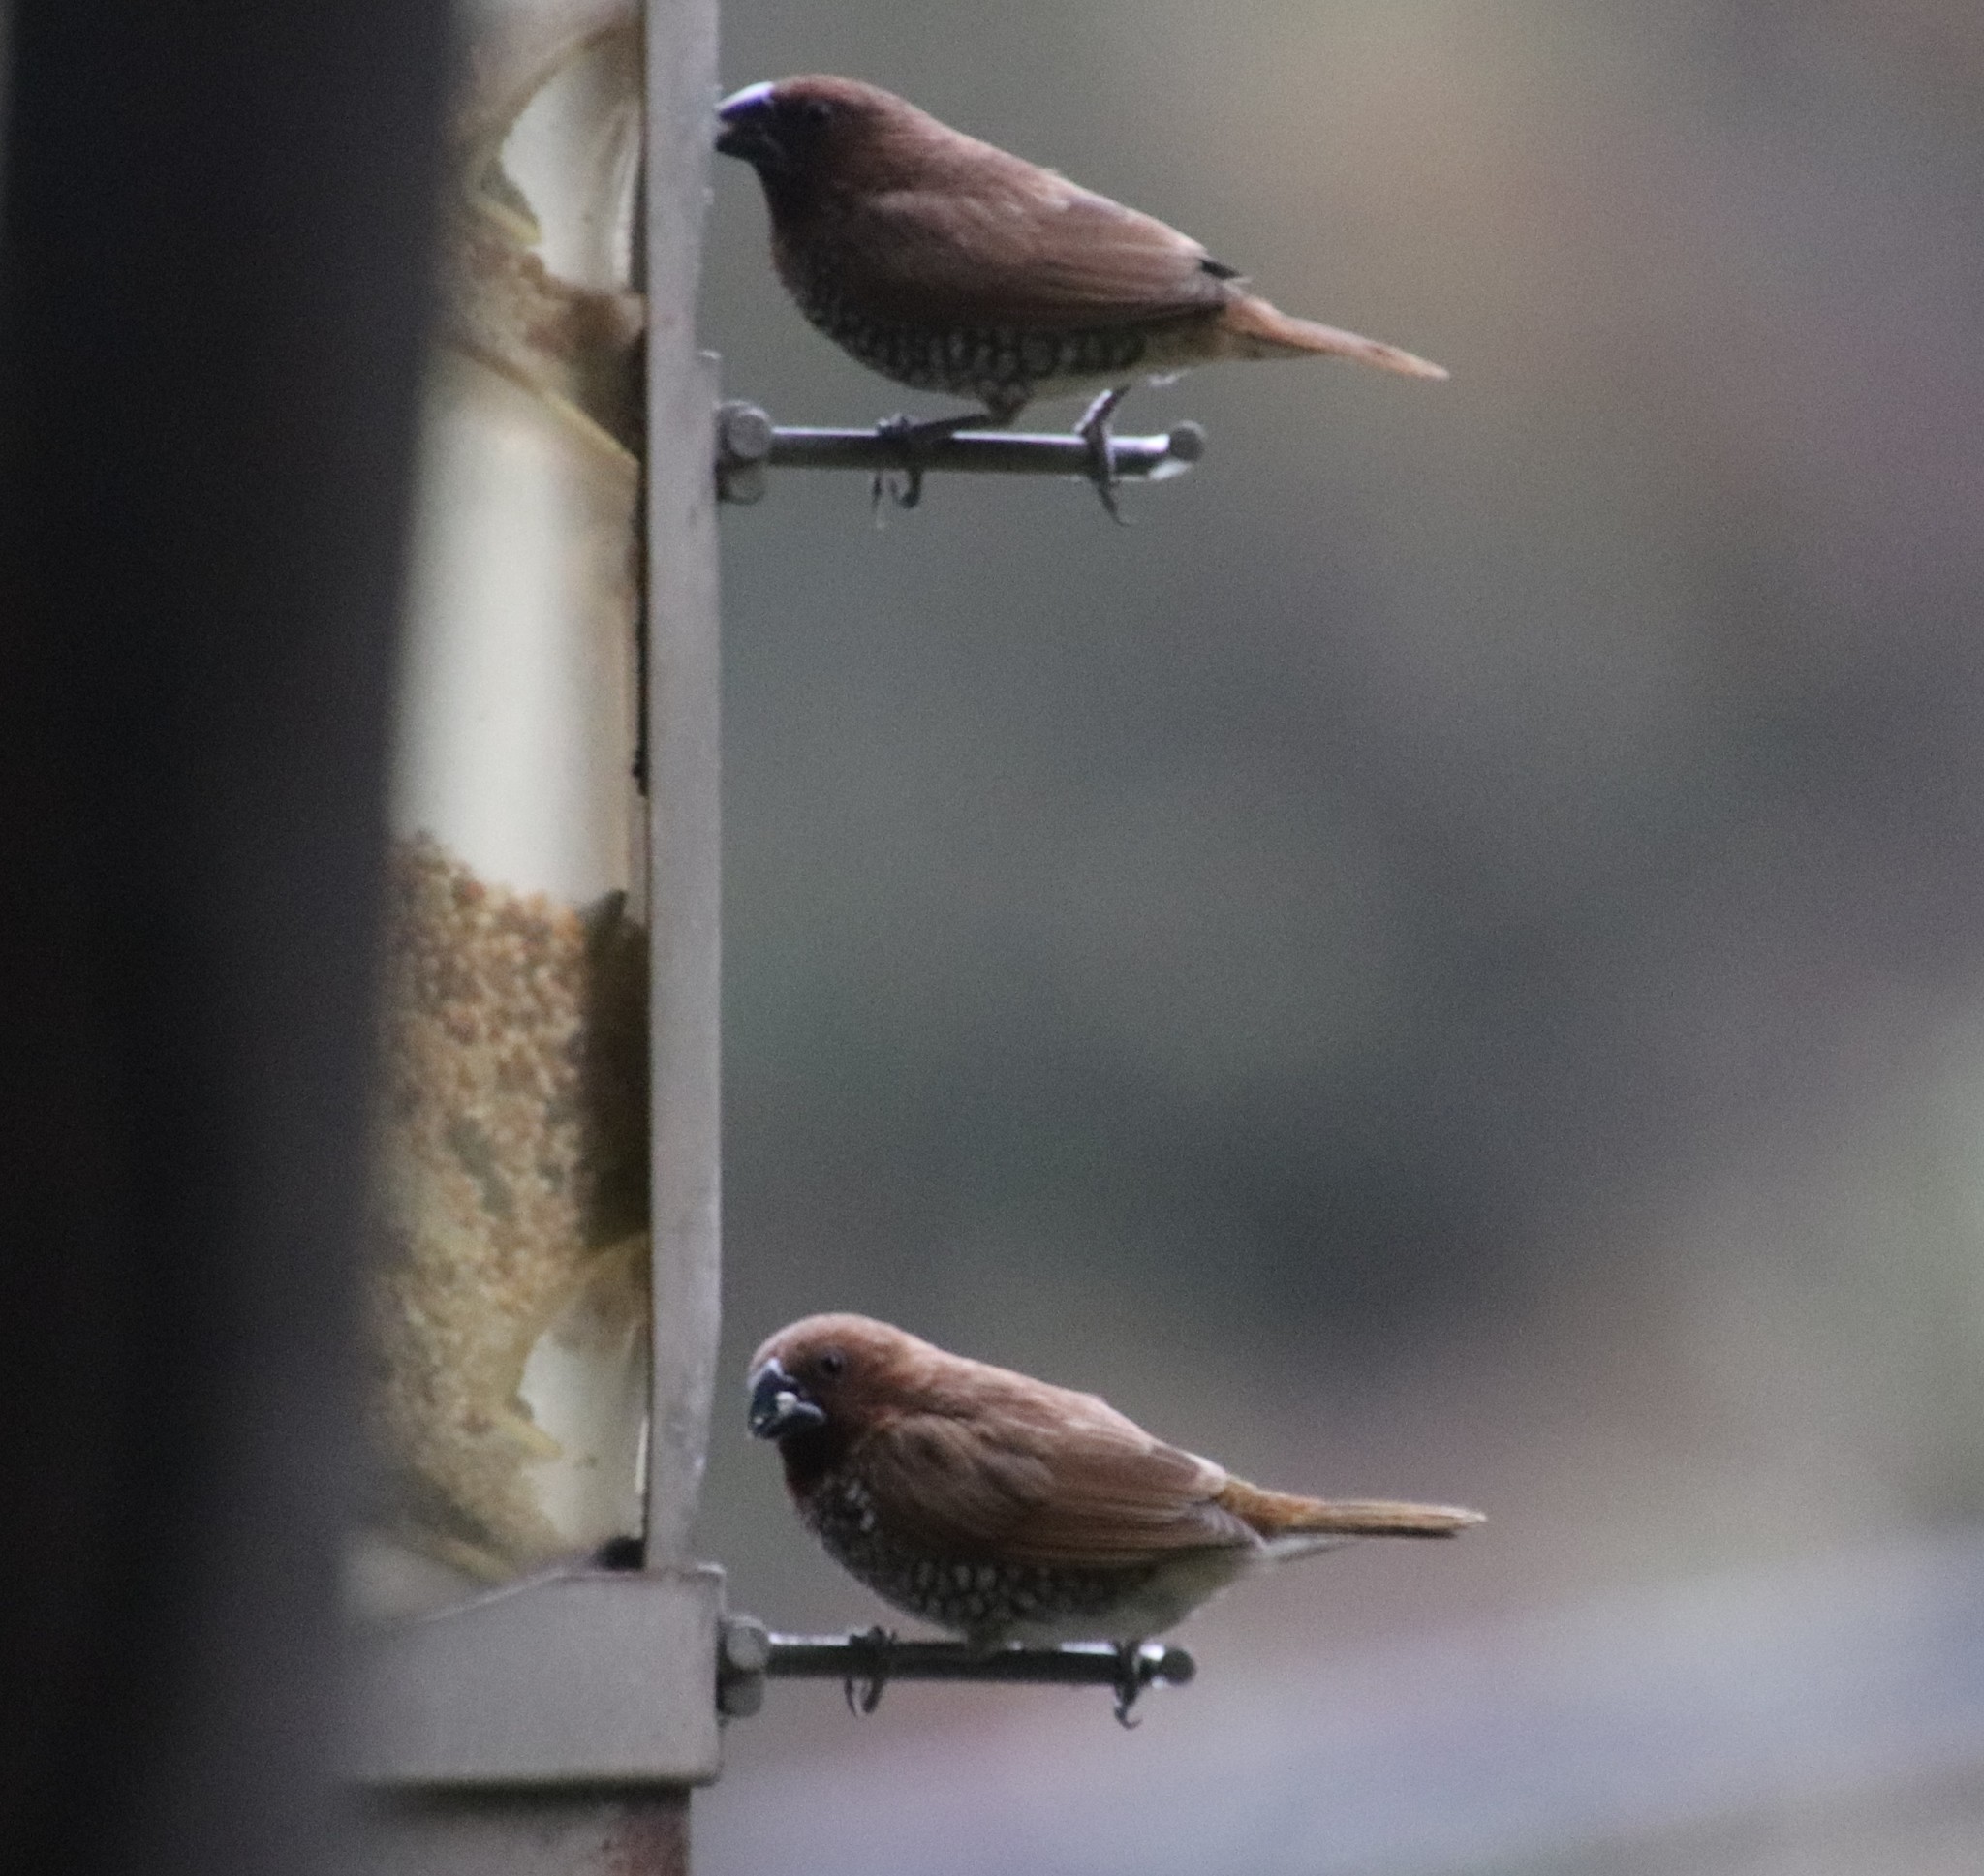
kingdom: Animalia
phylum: Chordata
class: Aves
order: Passeriformes
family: Estrildidae
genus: Lonchura
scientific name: Lonchura punctulata
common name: Scaly-breasted munia
